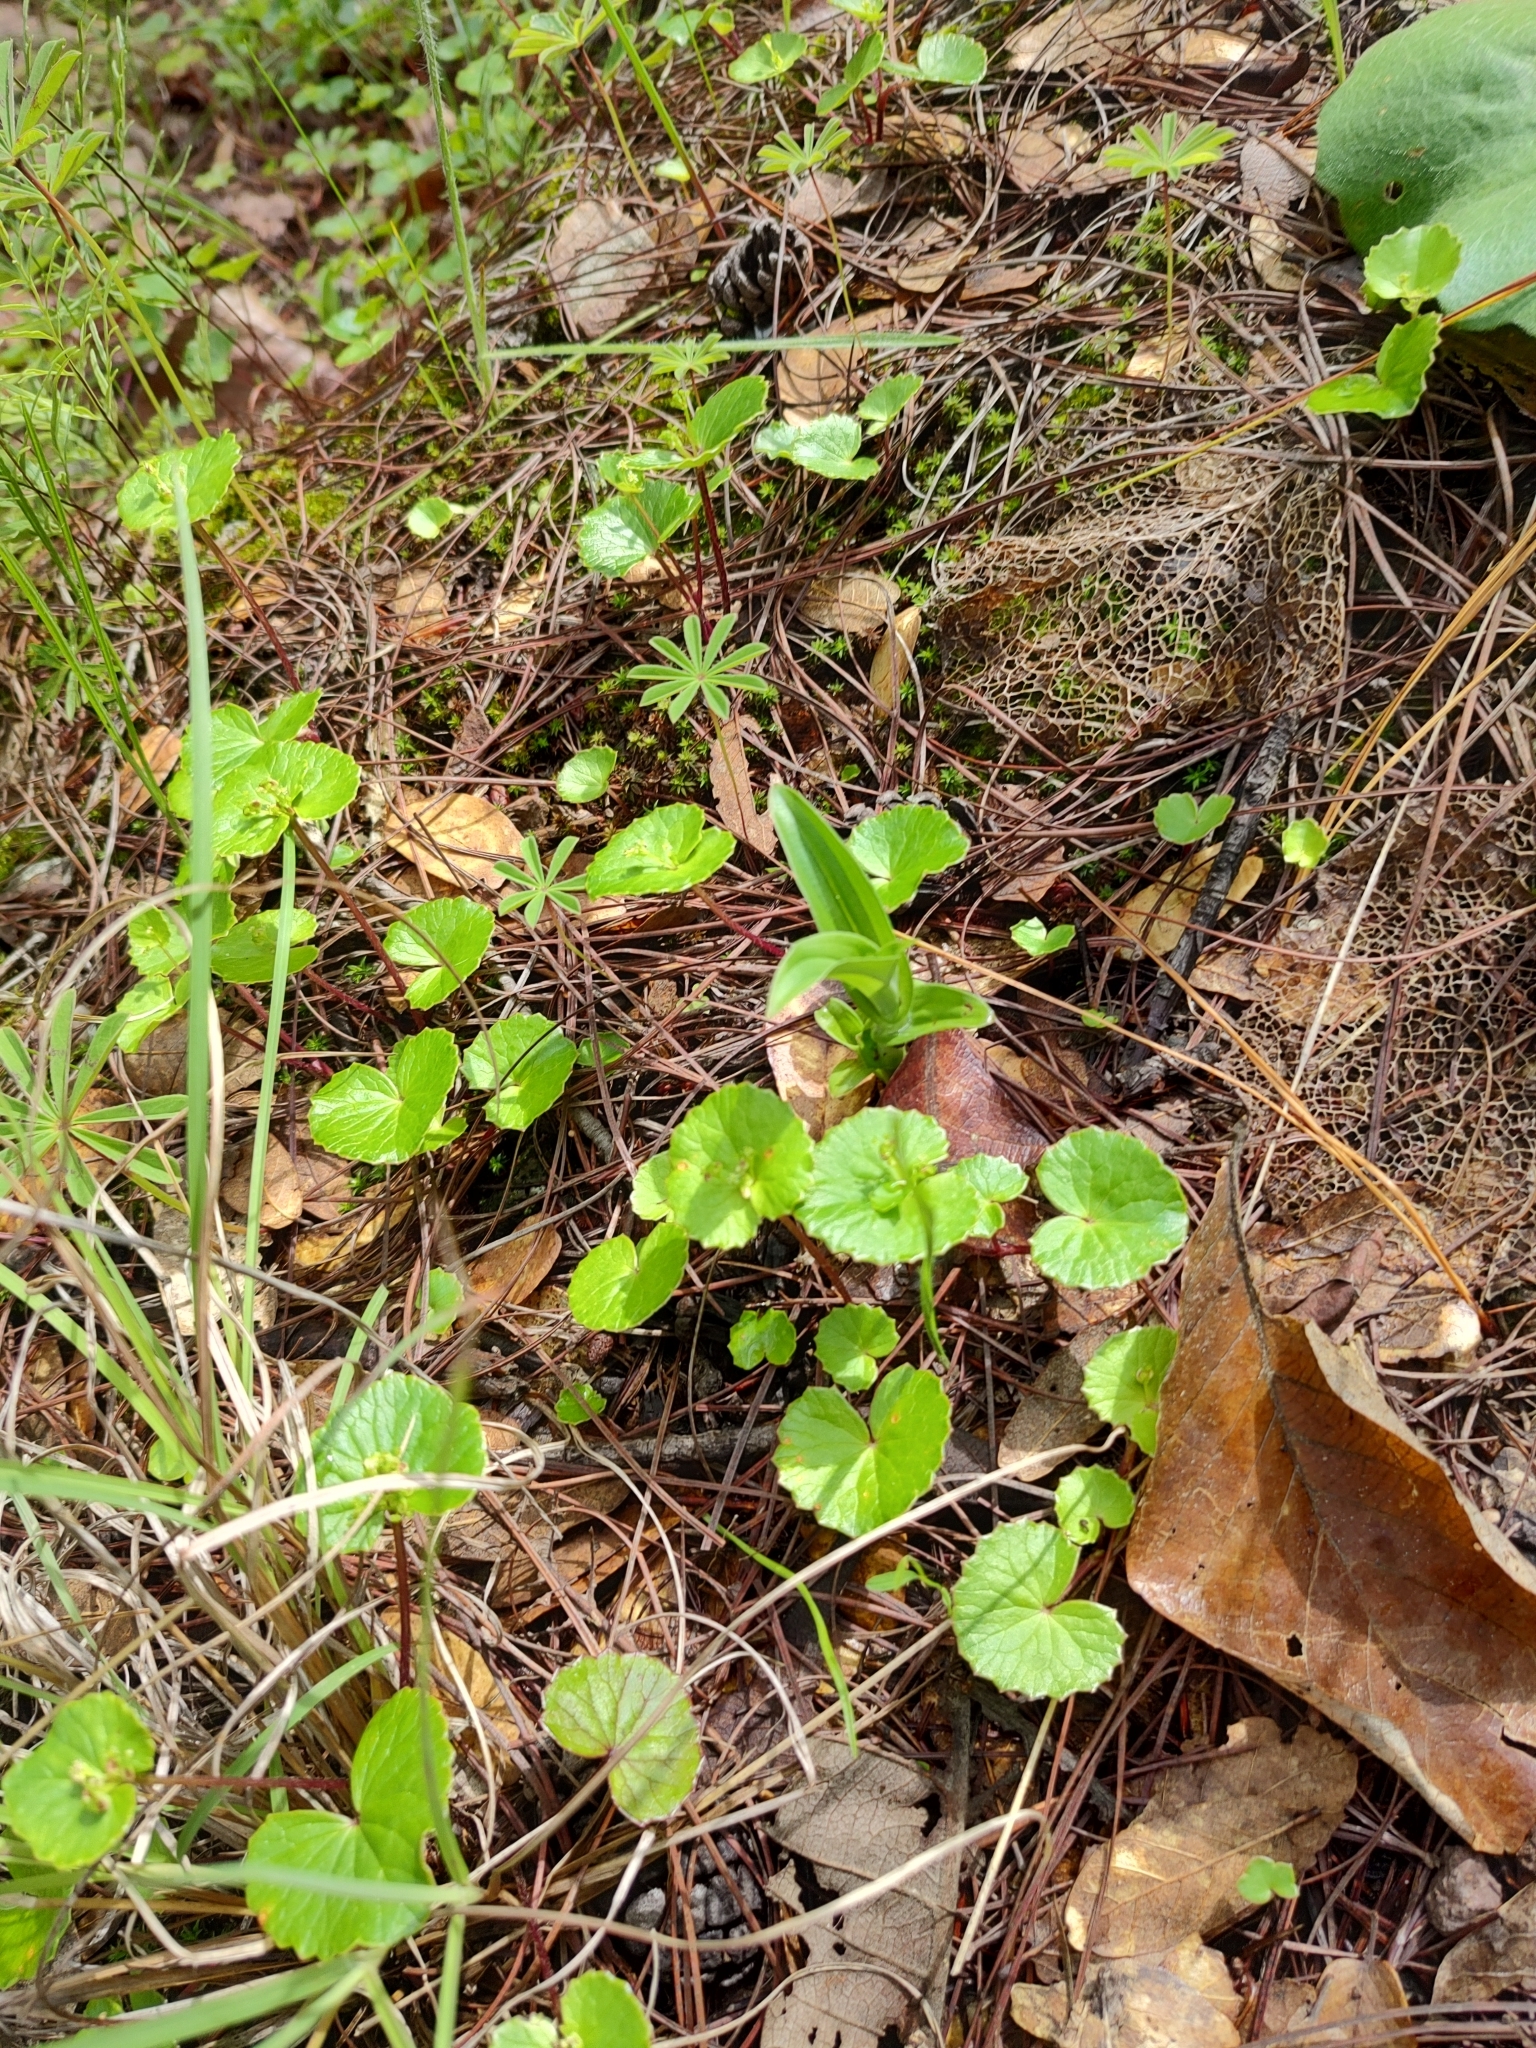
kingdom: Plantae
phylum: Tracheophyta
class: Magnoliopsida
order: Apiales
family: Apiaceae
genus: Micropleura
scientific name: Micropleura renifolia
